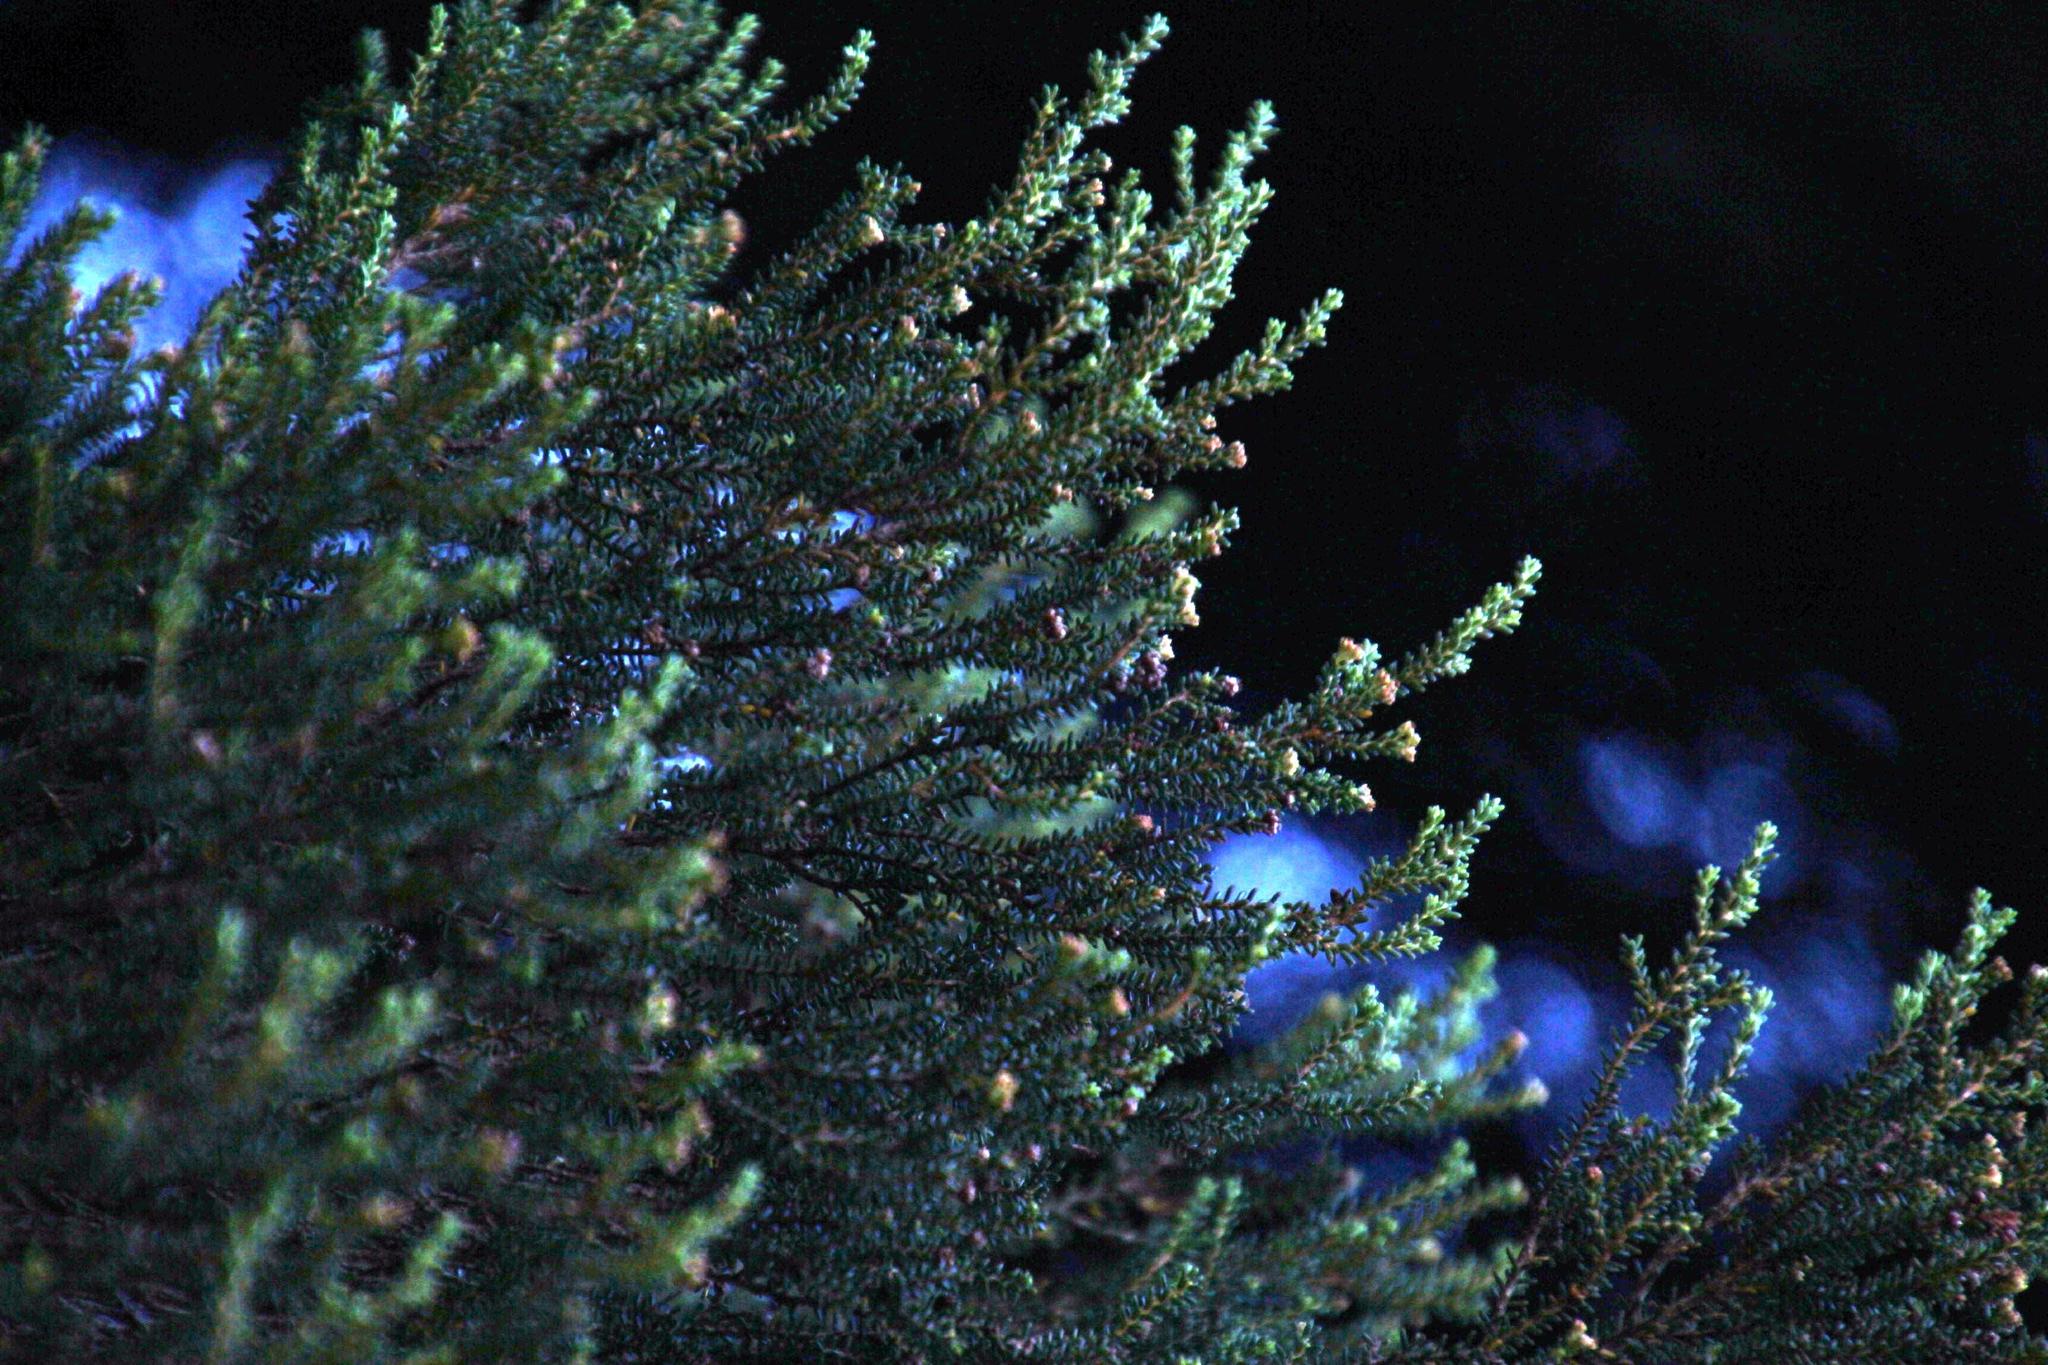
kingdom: Plantae
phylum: Tracheophyta
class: Magnoliopsida
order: Ericales
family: Ericaceae
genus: Erica
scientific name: Erica tristis
